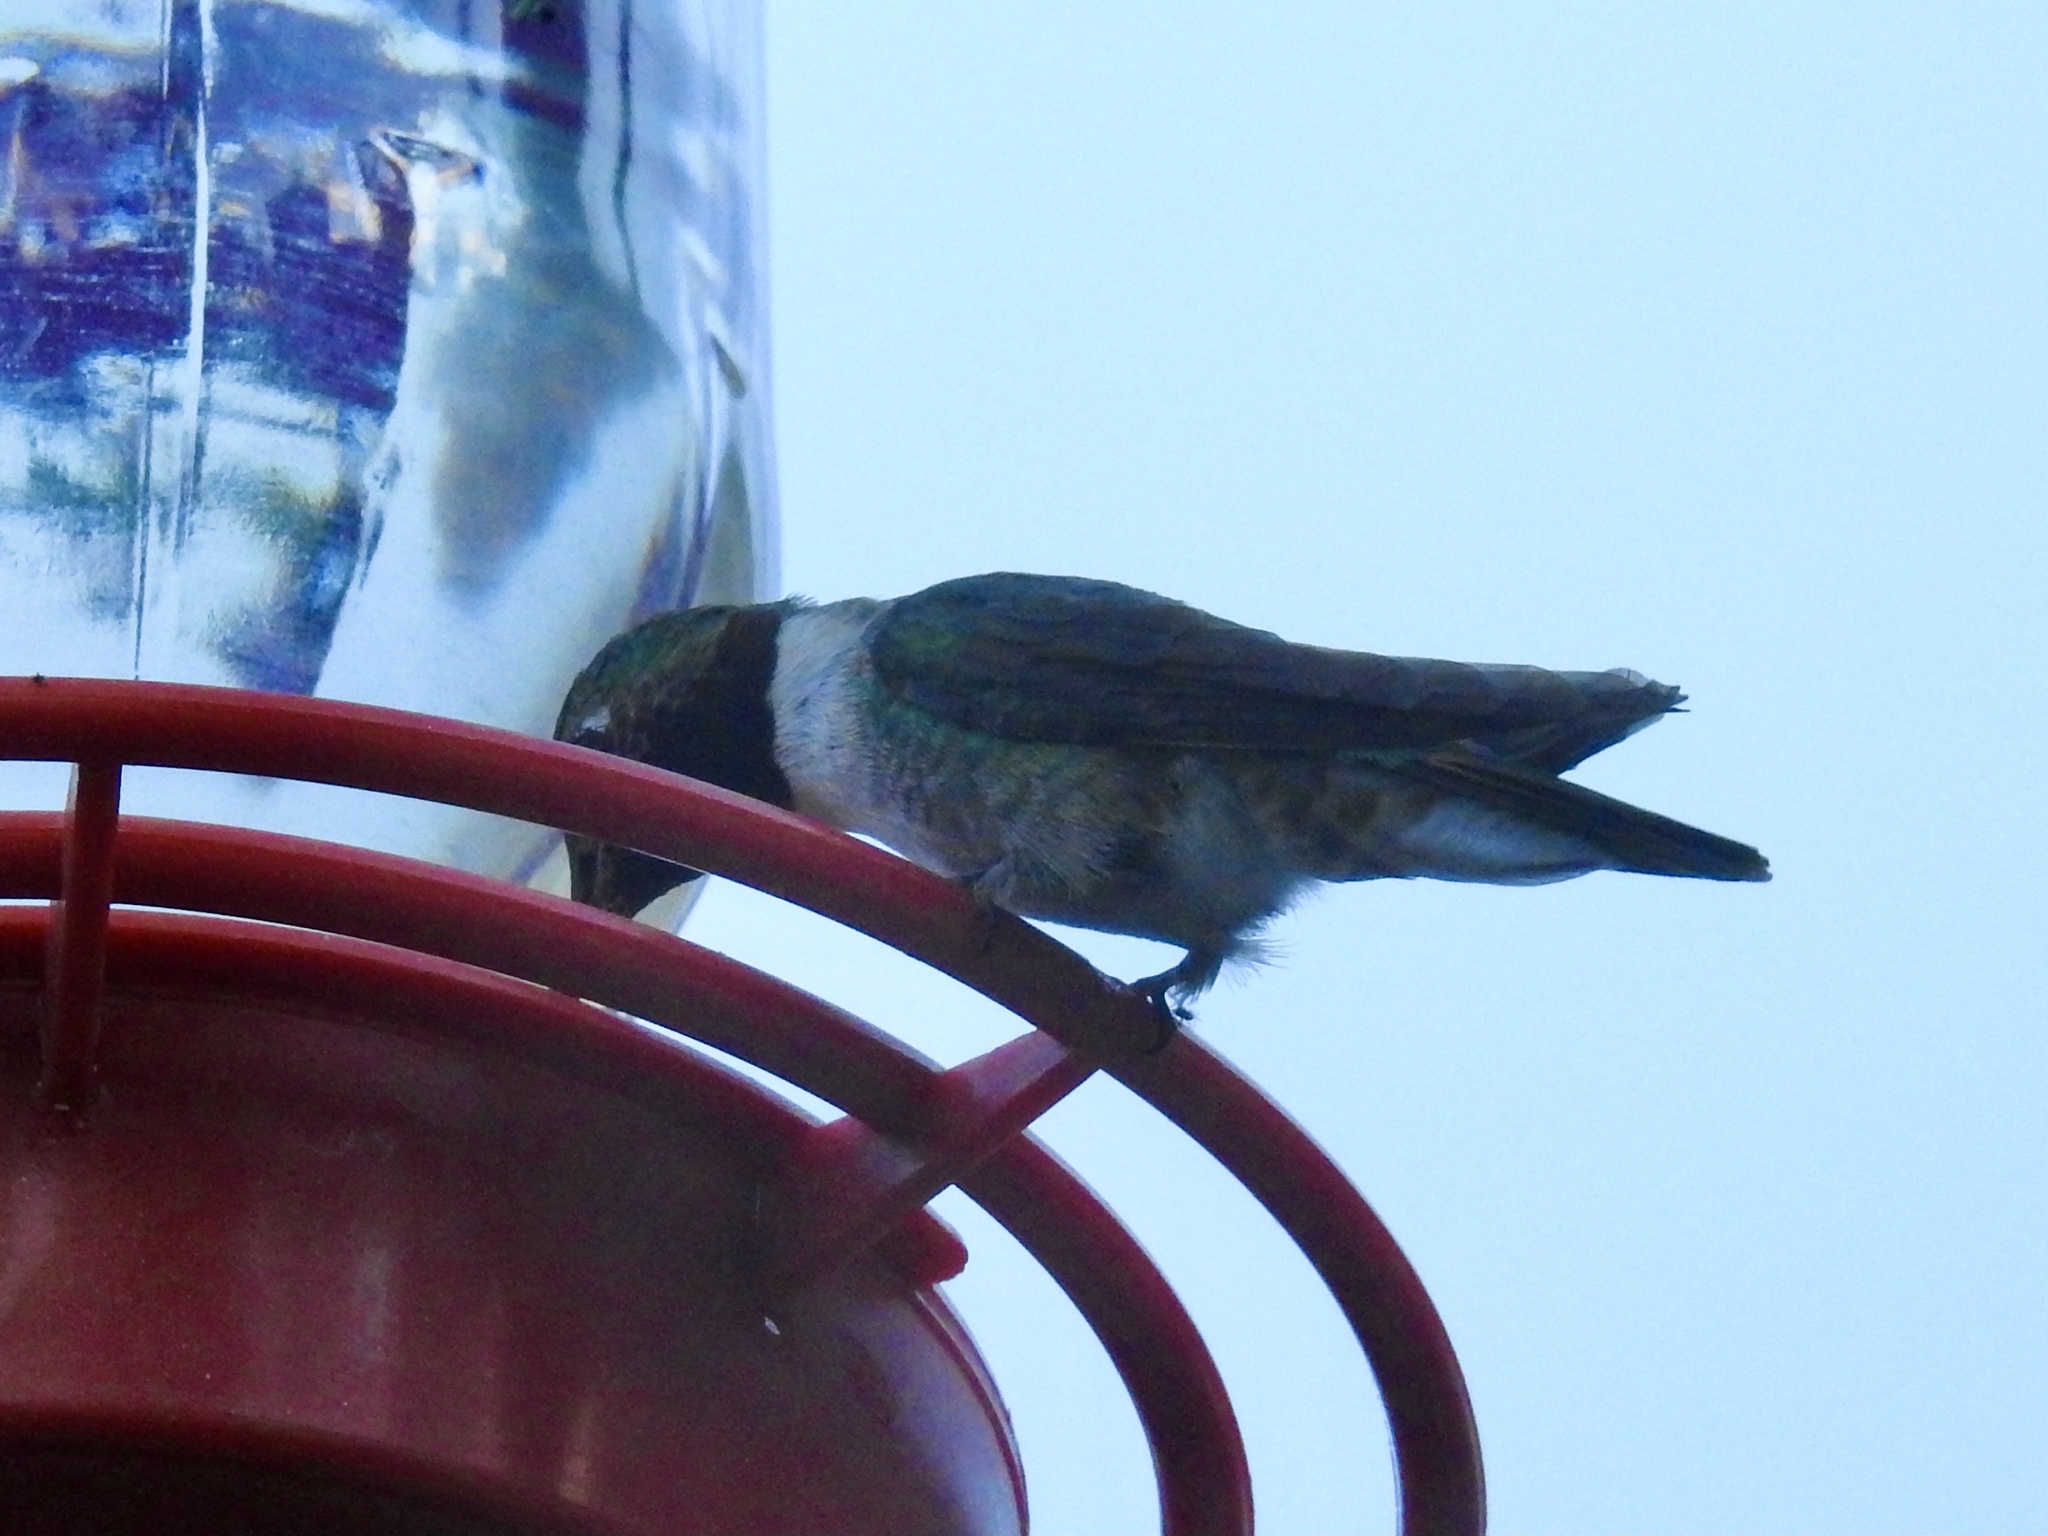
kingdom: Animalia
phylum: Chordata
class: Aves
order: Apodiformes
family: Trochilidae
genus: Selasphorus
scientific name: Selasphorus platycercus
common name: Broad-tailed hummingbird
